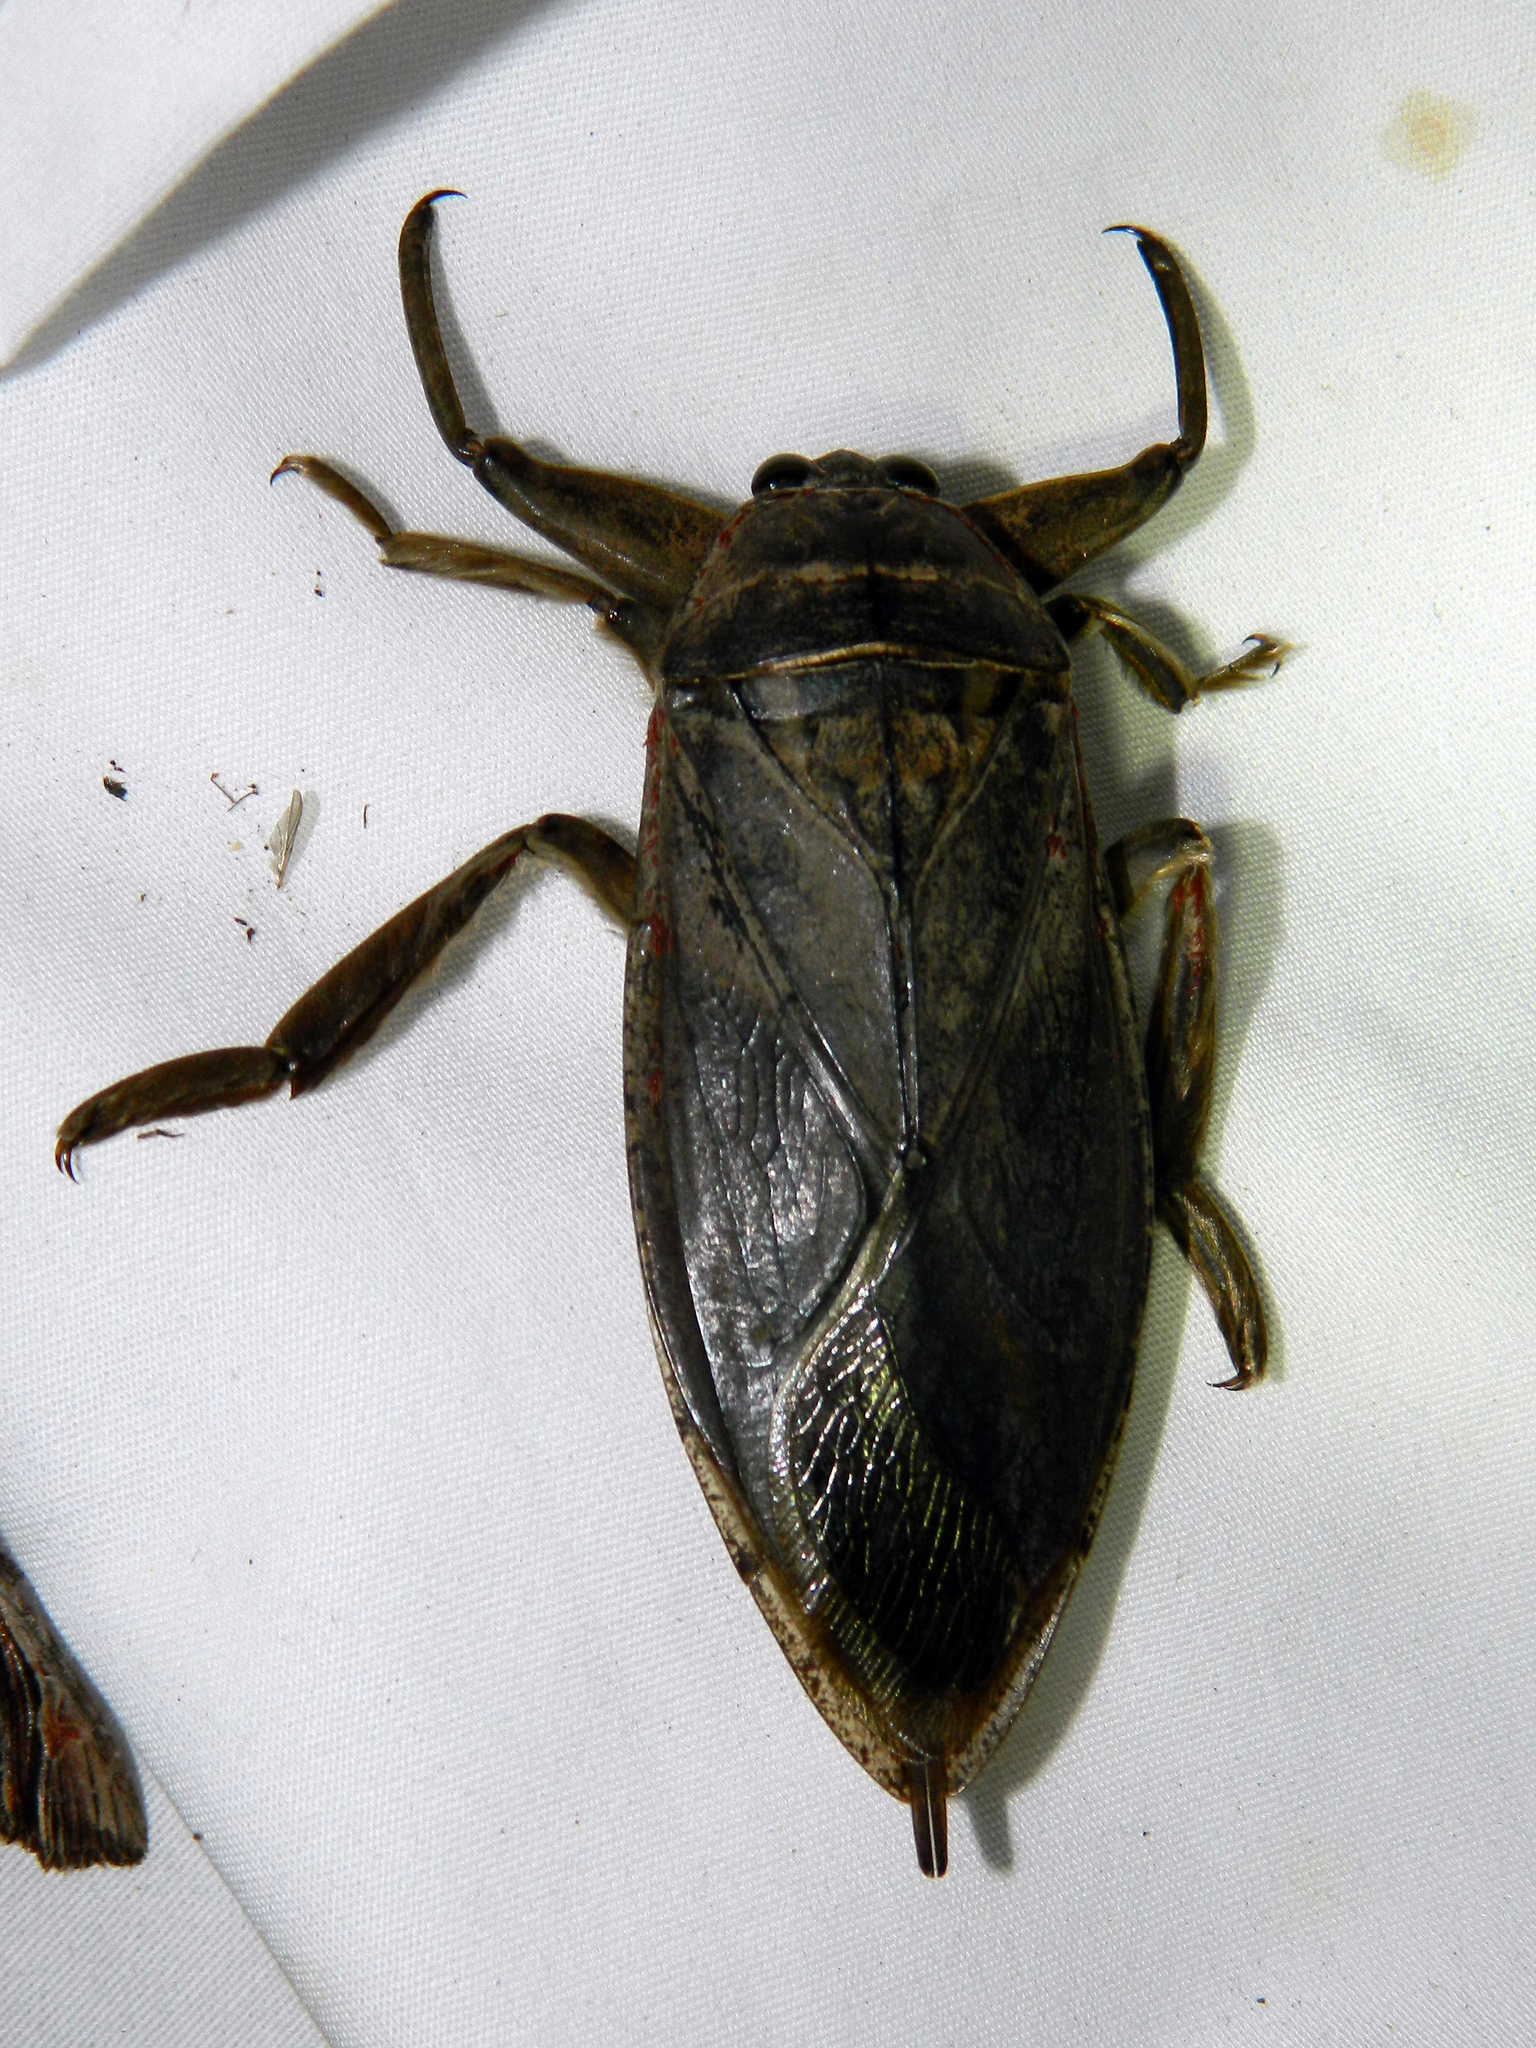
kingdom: Animalia
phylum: Arthropoda
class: Insecta
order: Hemiptera
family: Belostomatidae
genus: Lethocerus
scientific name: Lethocerus americanus
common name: Giant water bug
